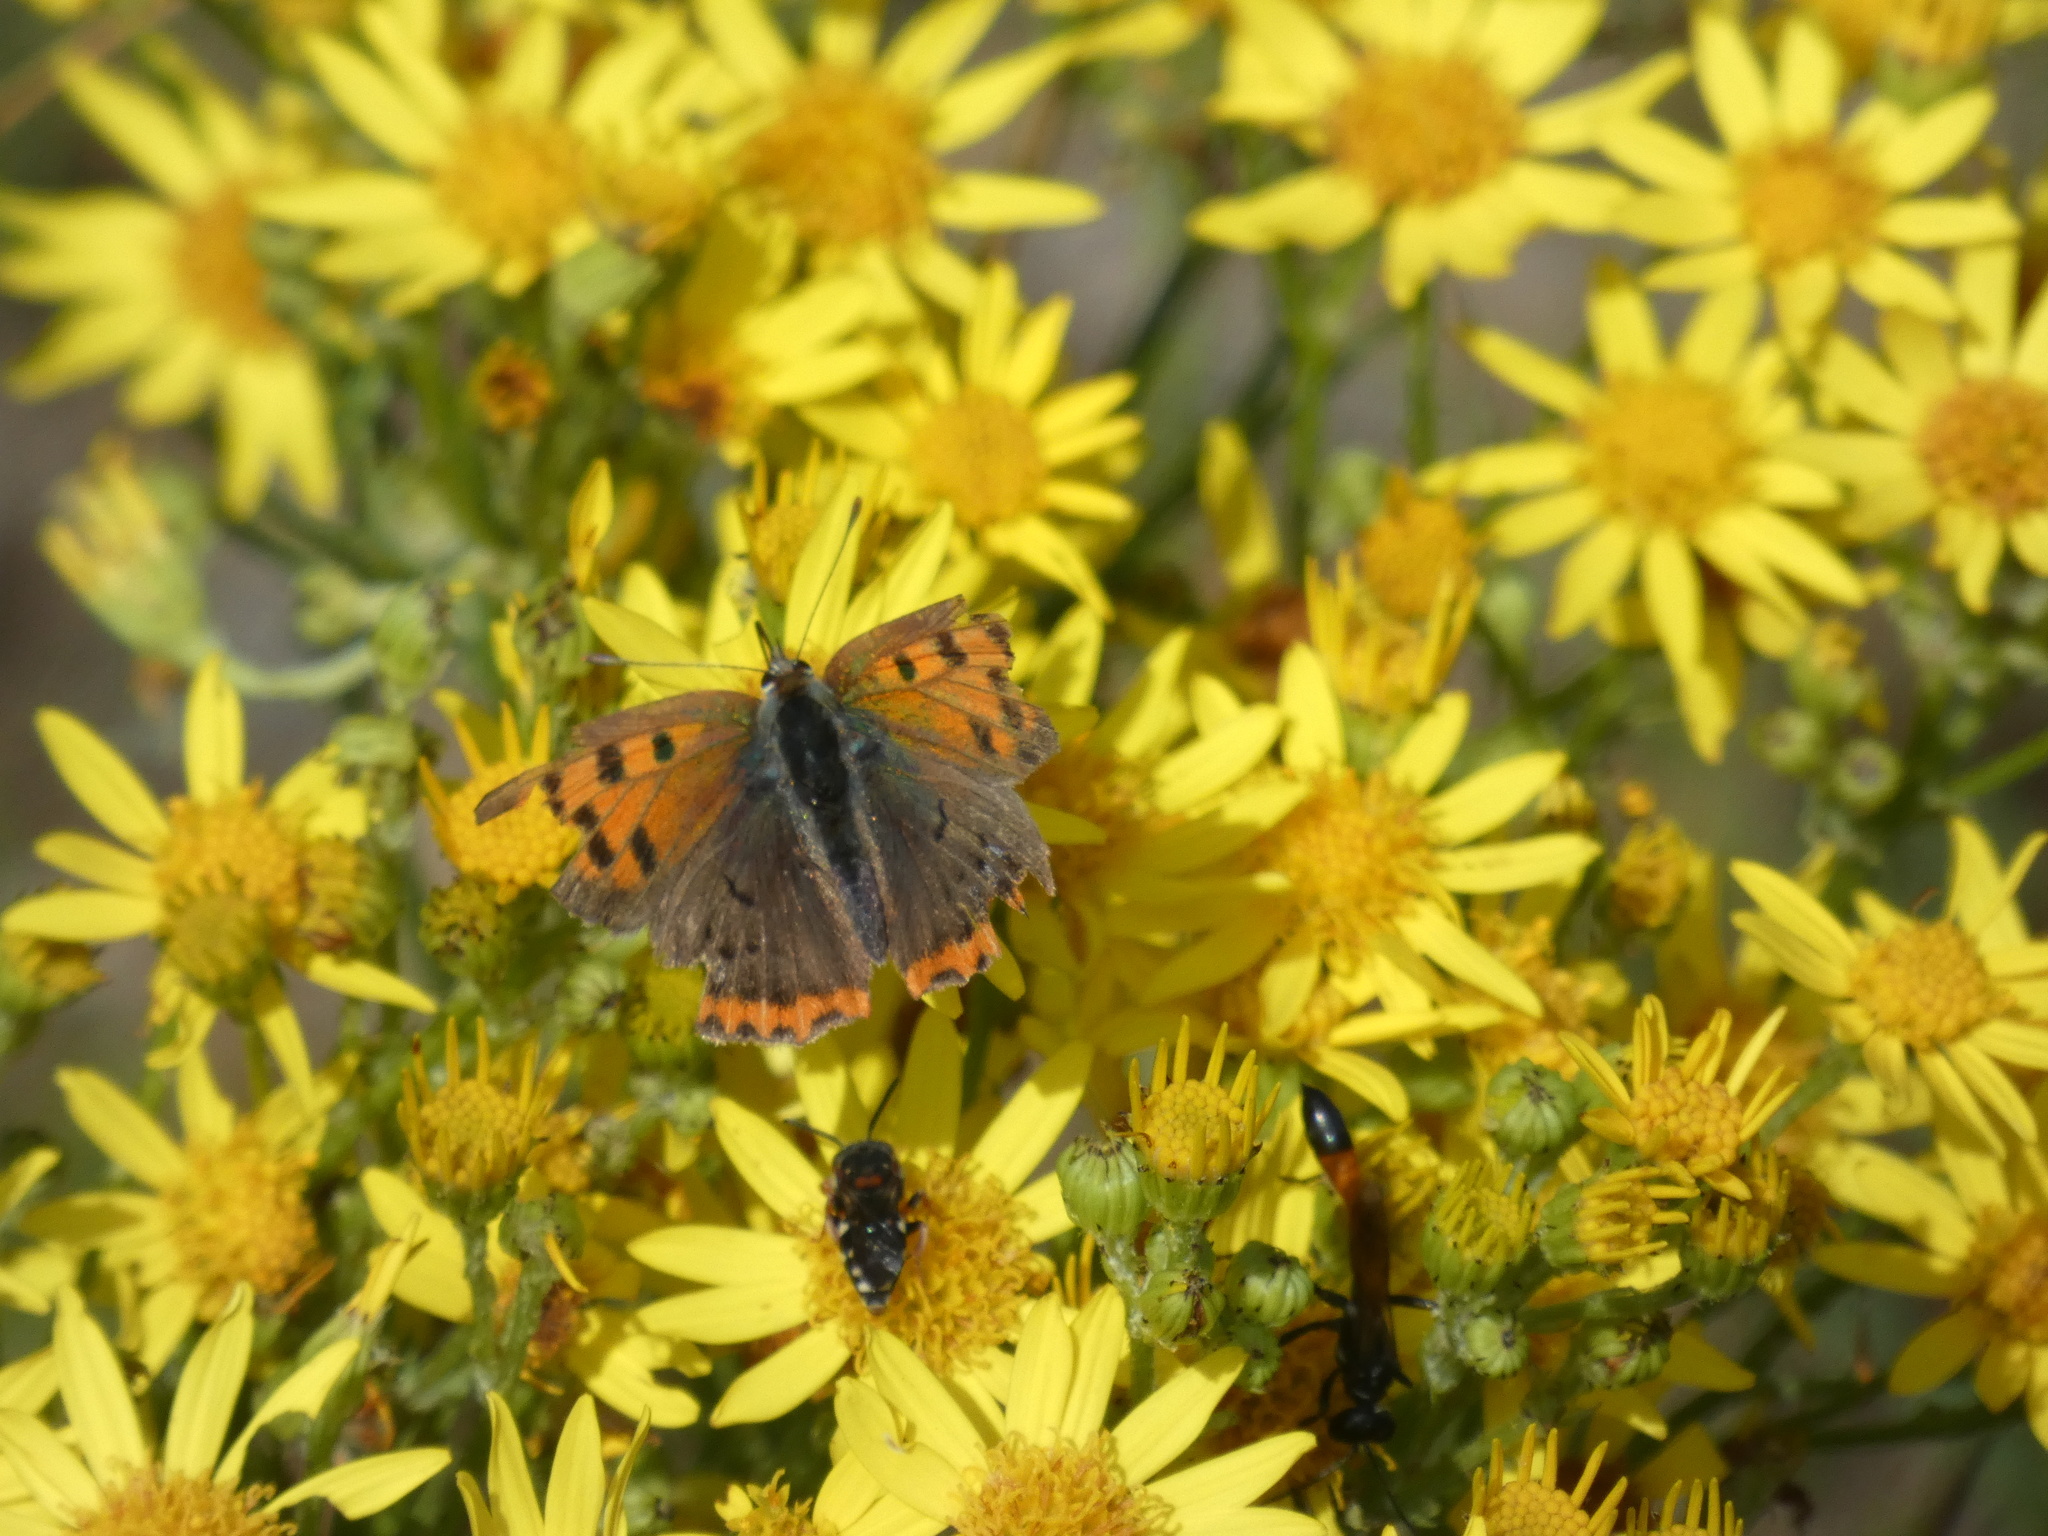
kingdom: Animalia
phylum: Arthropoda
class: Insecta
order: Lepidoptera
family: Lycaenidae
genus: Lycaena
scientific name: Lycaena phlaeas
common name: Small copper
